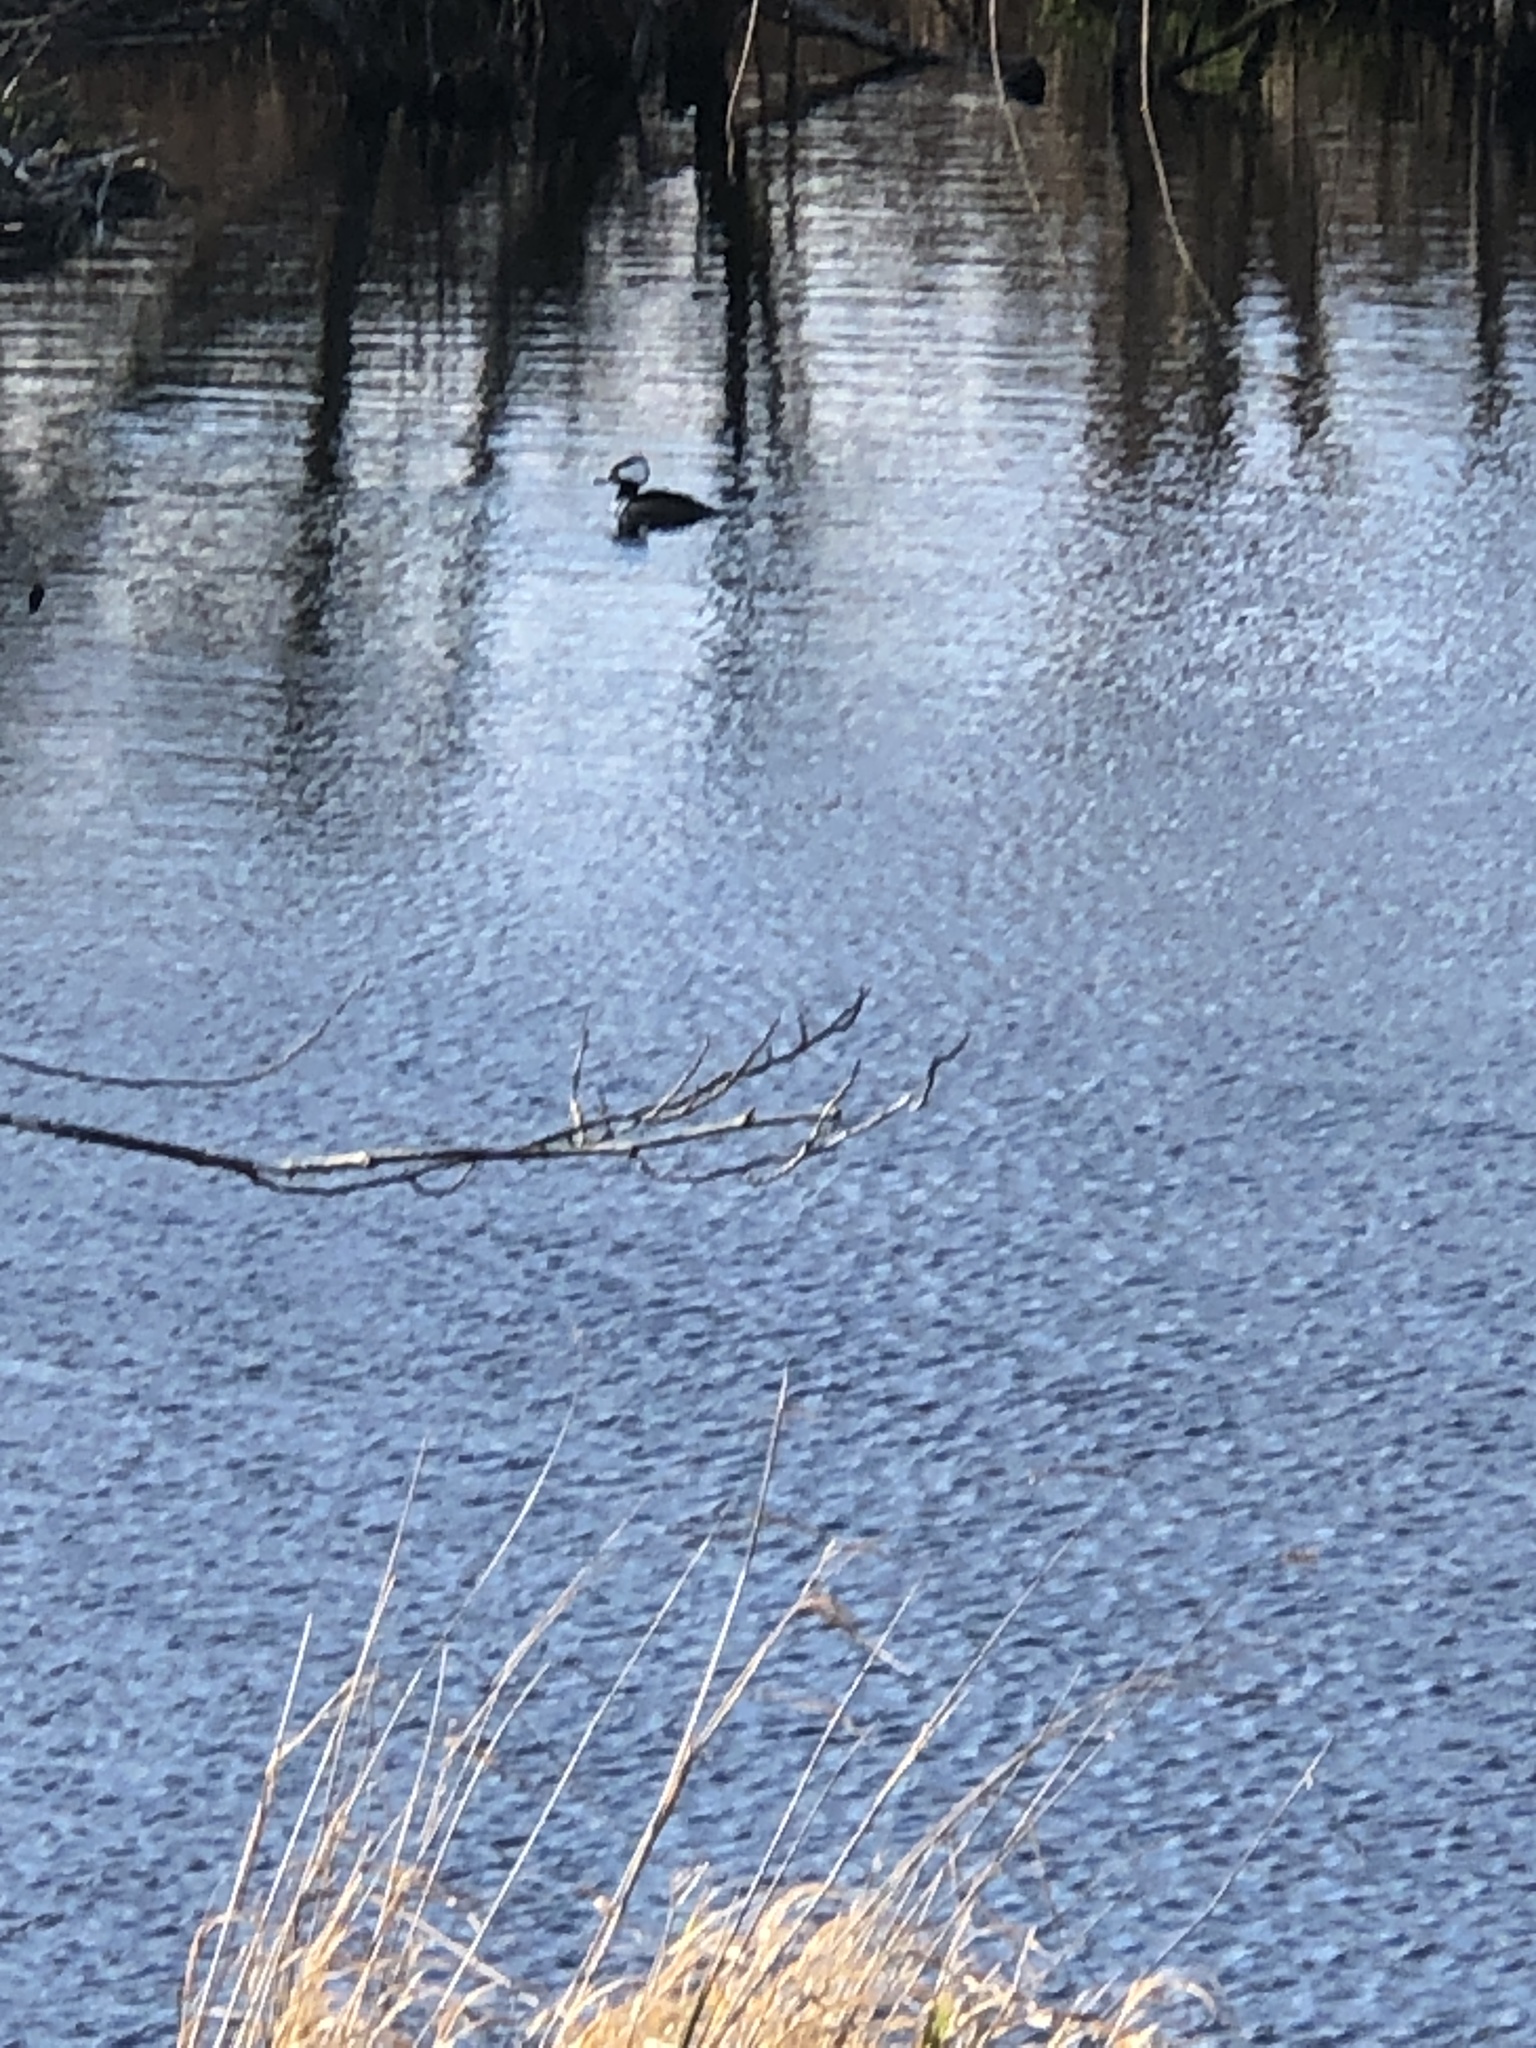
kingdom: Animalia
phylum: Chordata
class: Aves
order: Anseriformes
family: Anatidae
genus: Lophodytes
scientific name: Lophodytes cucullatus
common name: Hooded merganser
